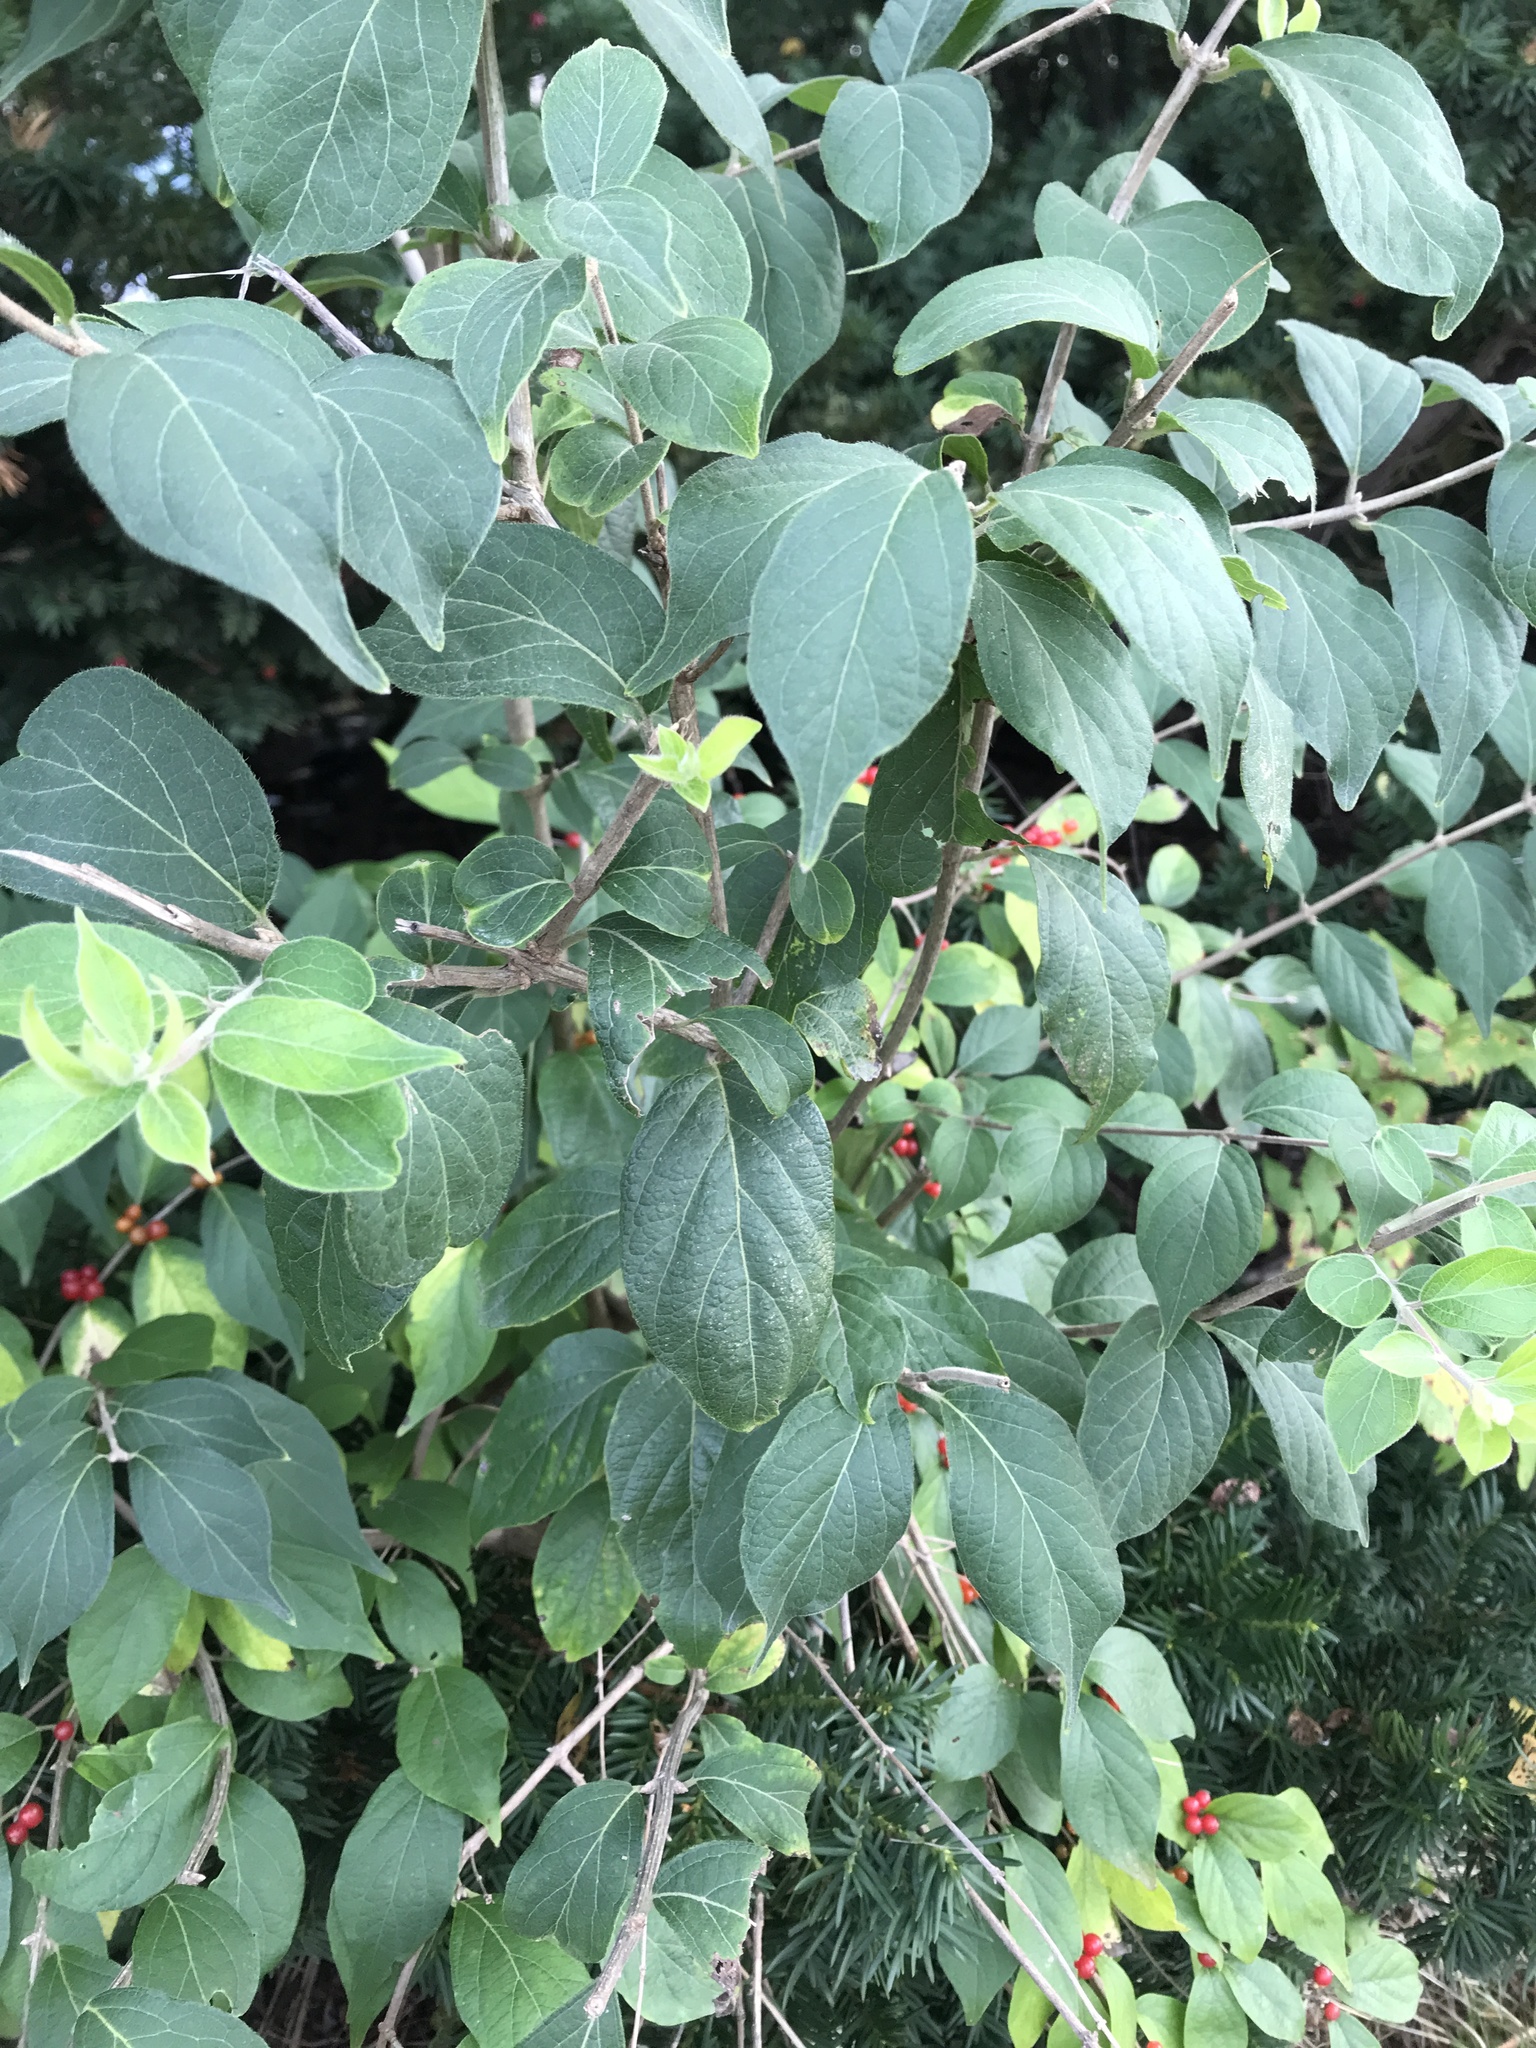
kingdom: Plantae
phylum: Tracheophyta
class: Magnoliopsida
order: Dipsacales
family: Caprifoliaceae
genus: Lonicera
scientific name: Lonicera maackii
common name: Amur honeysuckle
